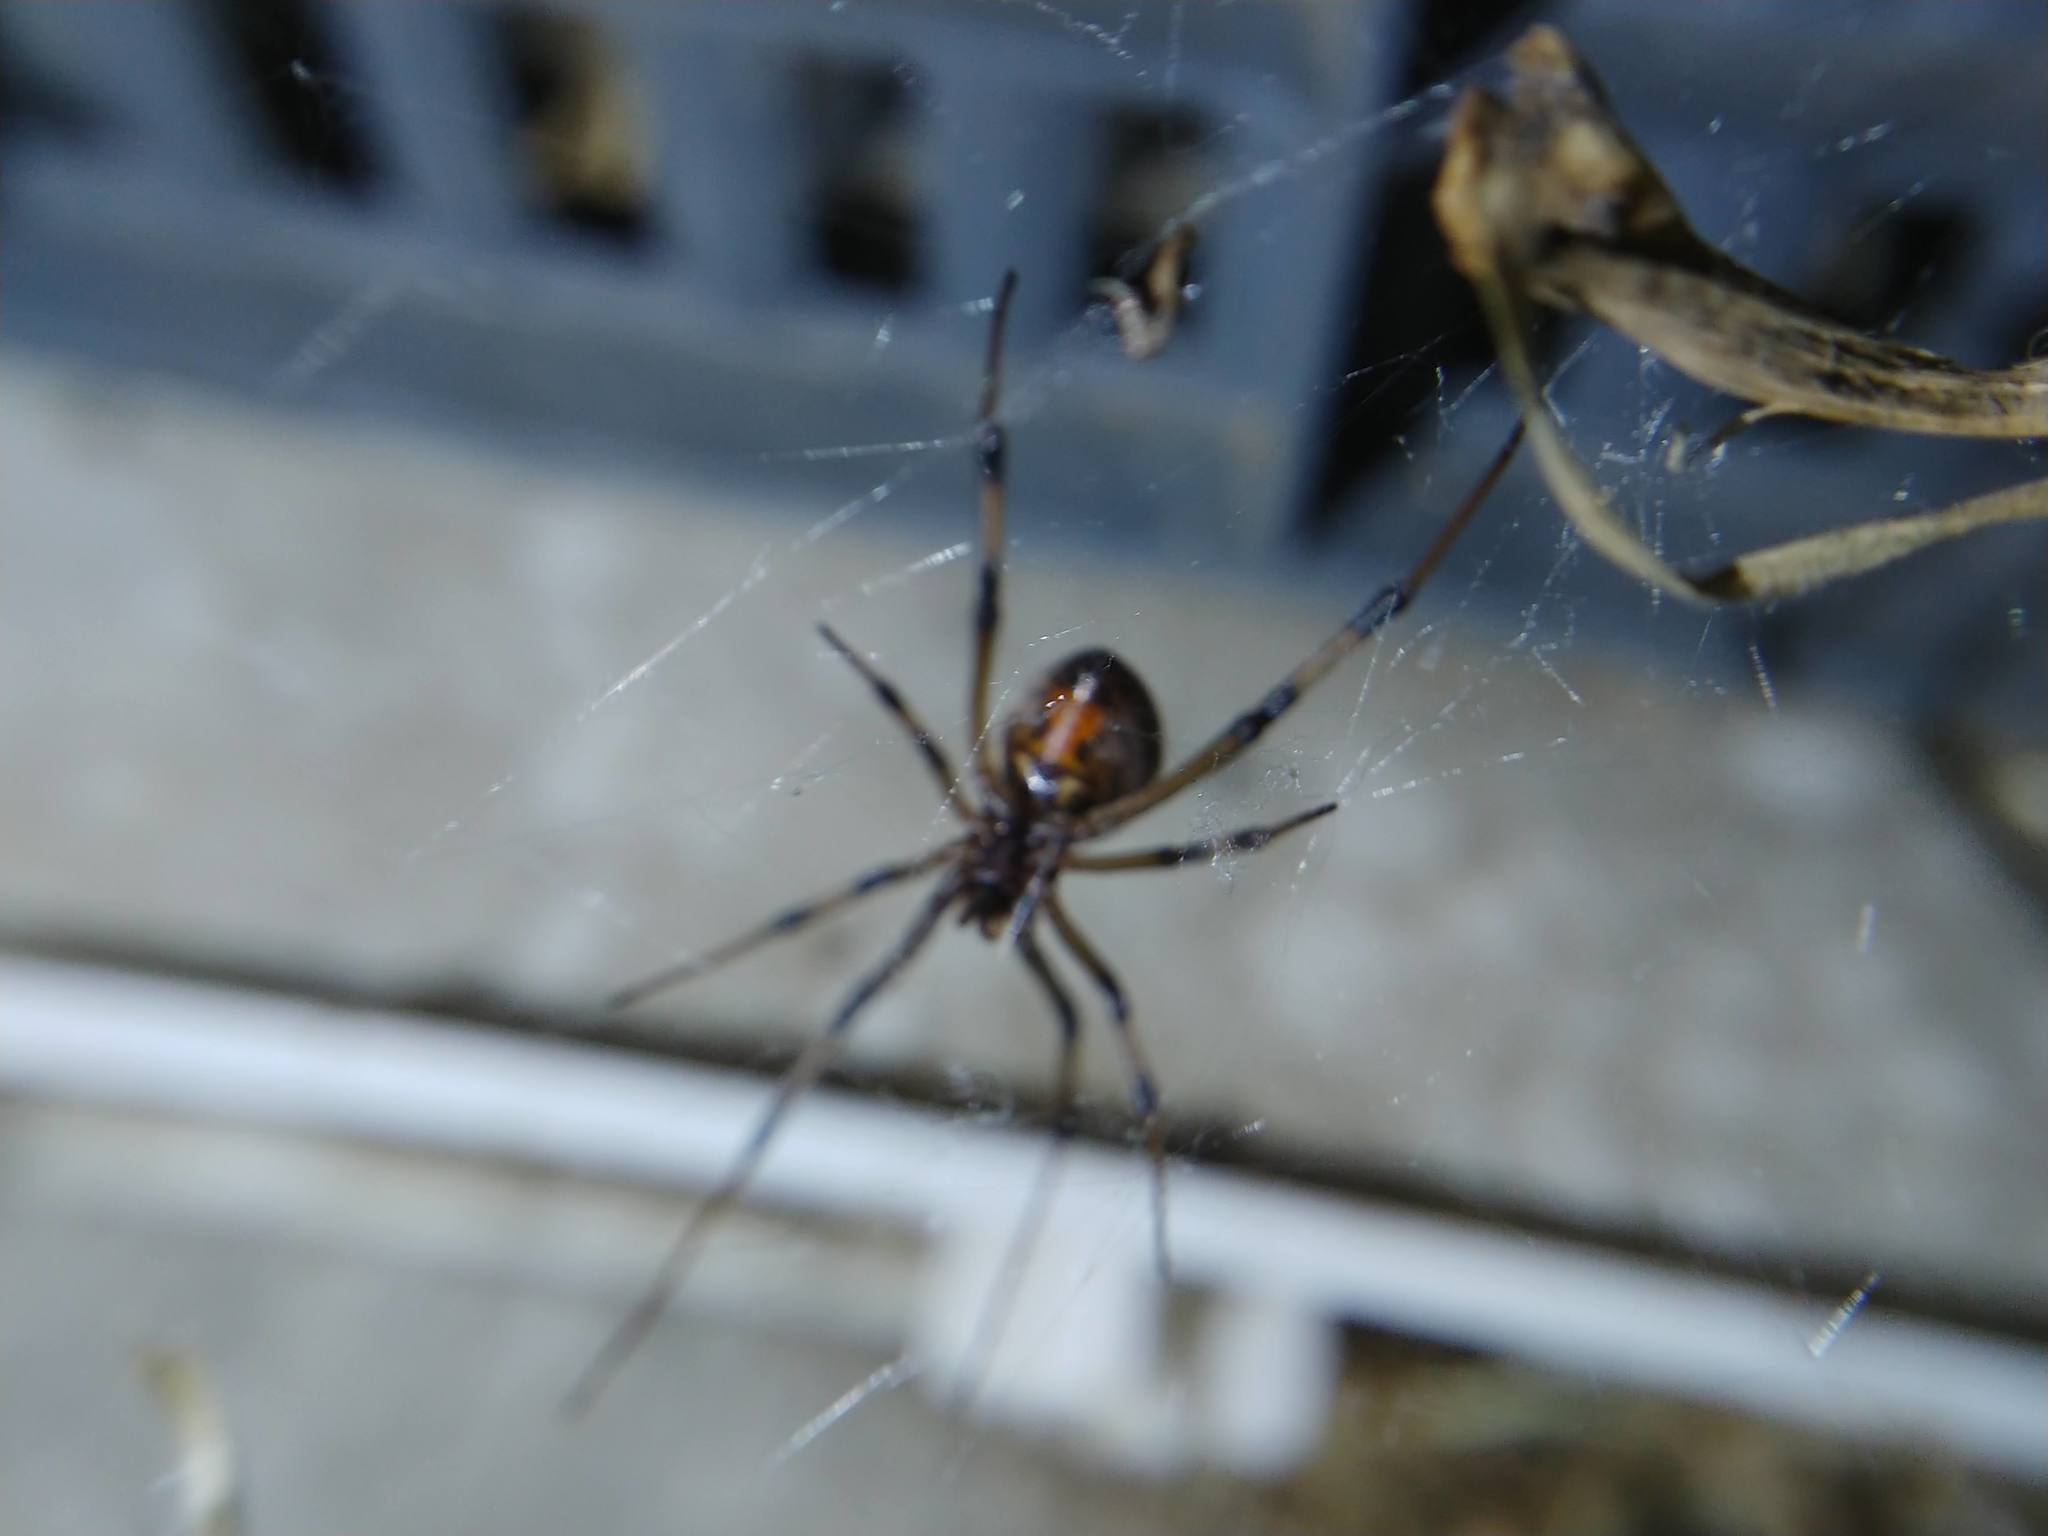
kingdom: Animalia
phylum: Arthropoda
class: Arachnida
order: Araneae
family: Theridiidae
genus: Latrodectus
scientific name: Latrodectus geometricus
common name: Brown widow spider
